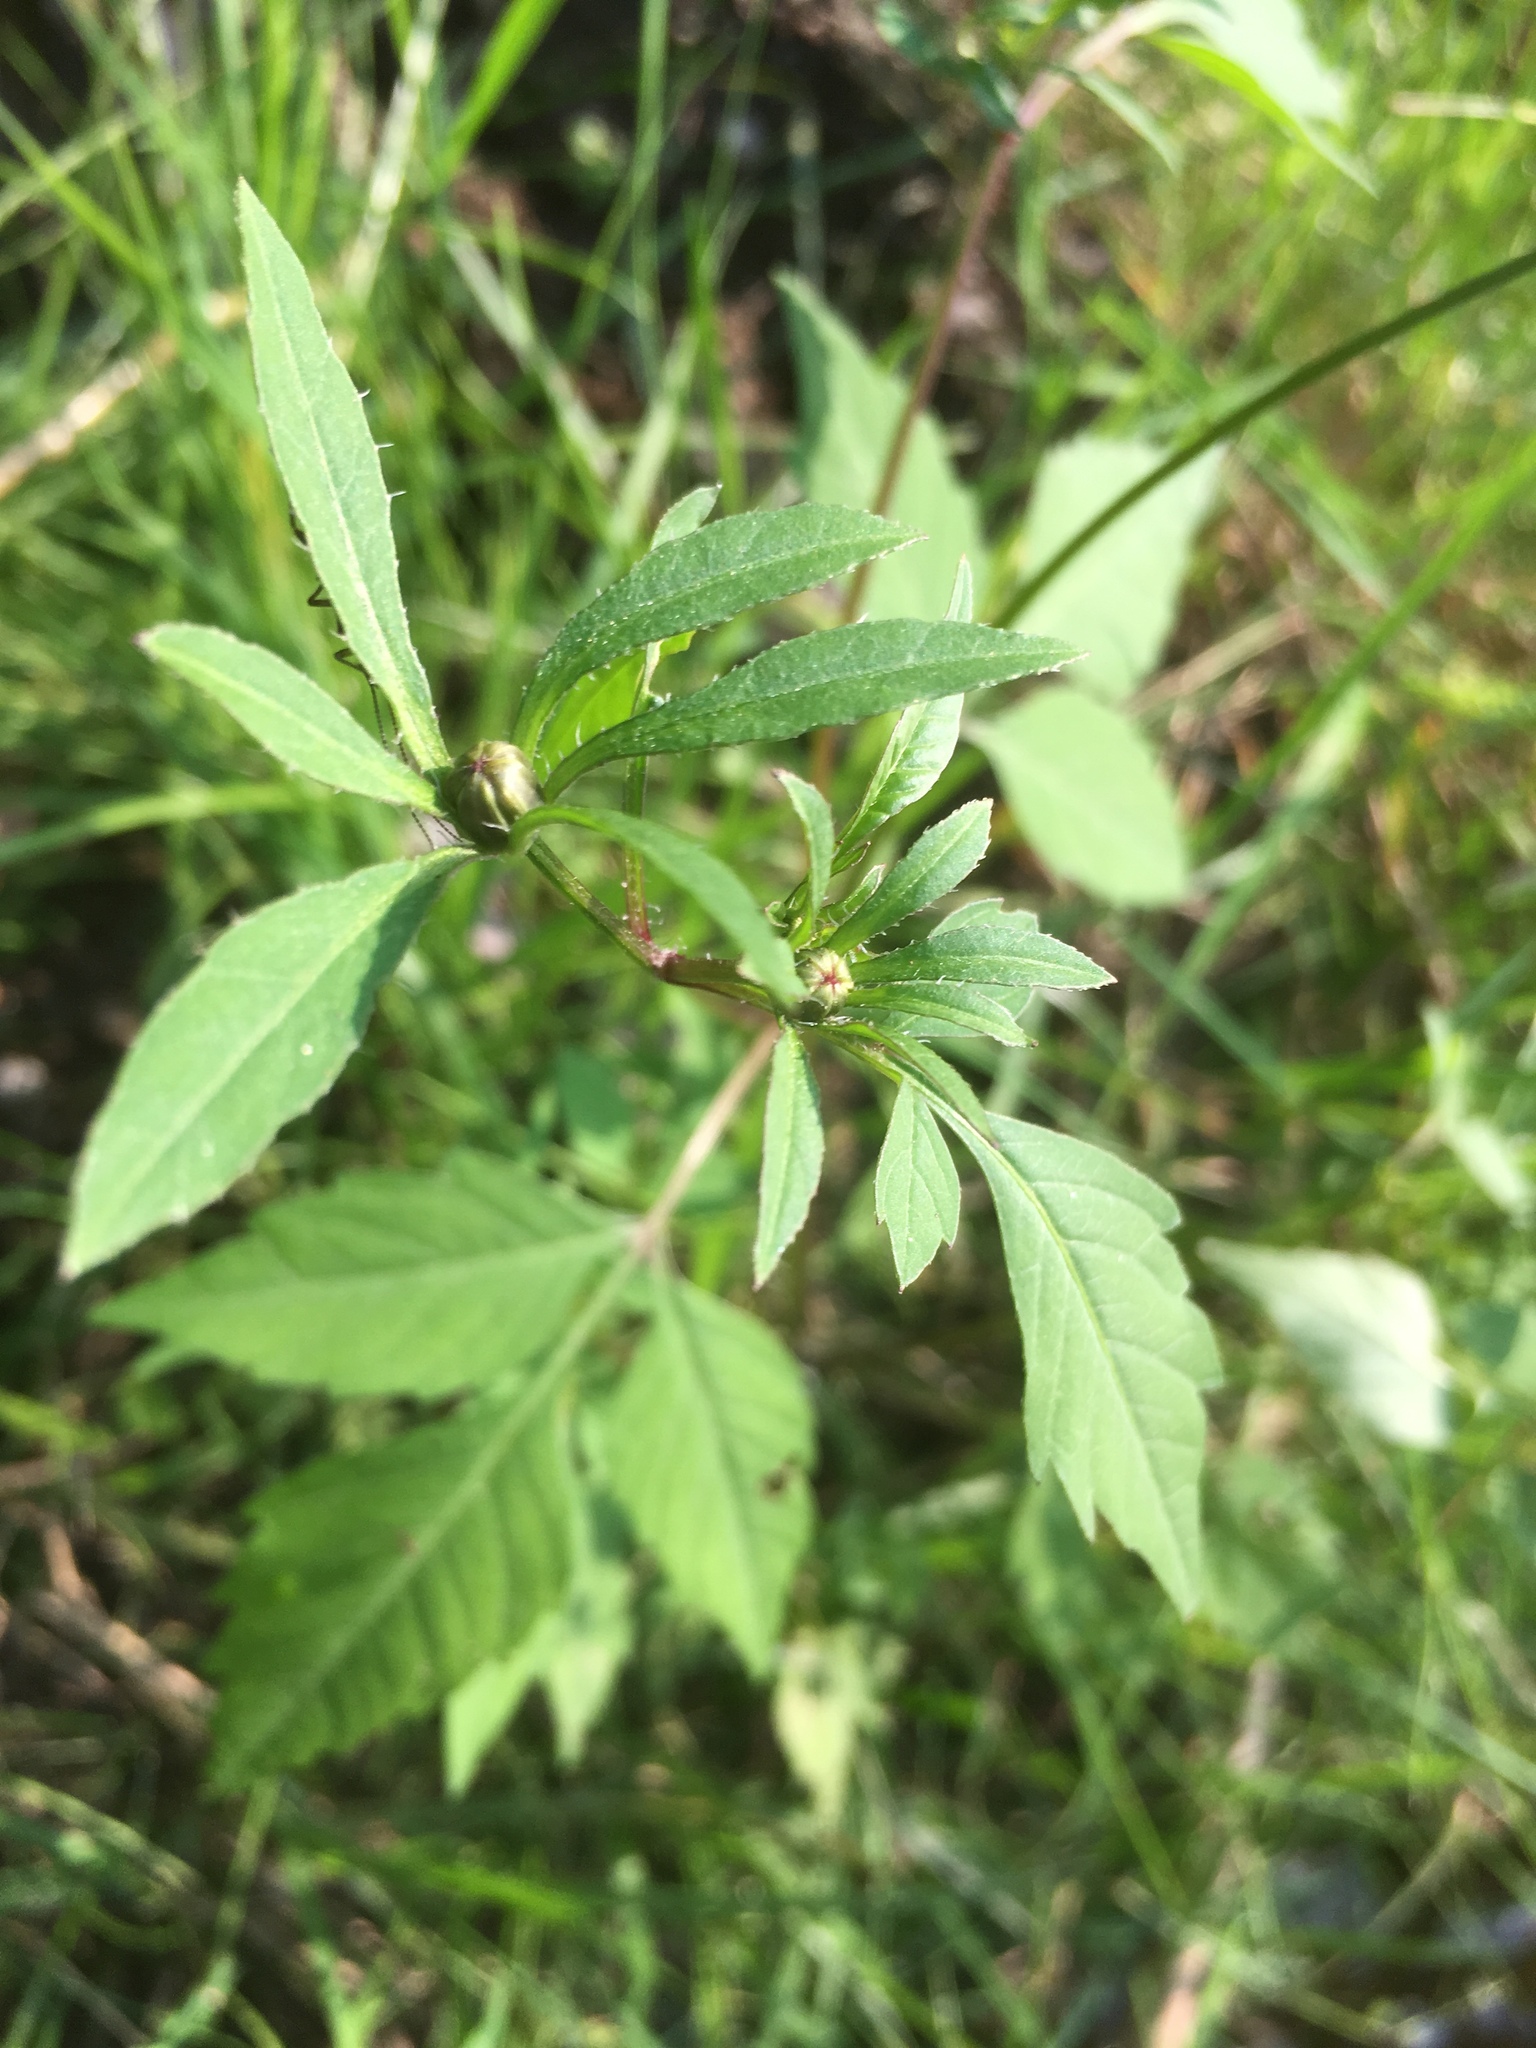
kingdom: Plantae
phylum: Tracheophyta
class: Magnoliopsida
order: Asterales
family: Asteraceae
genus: Bidens
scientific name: Bidens frondosa
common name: Beggarticks
